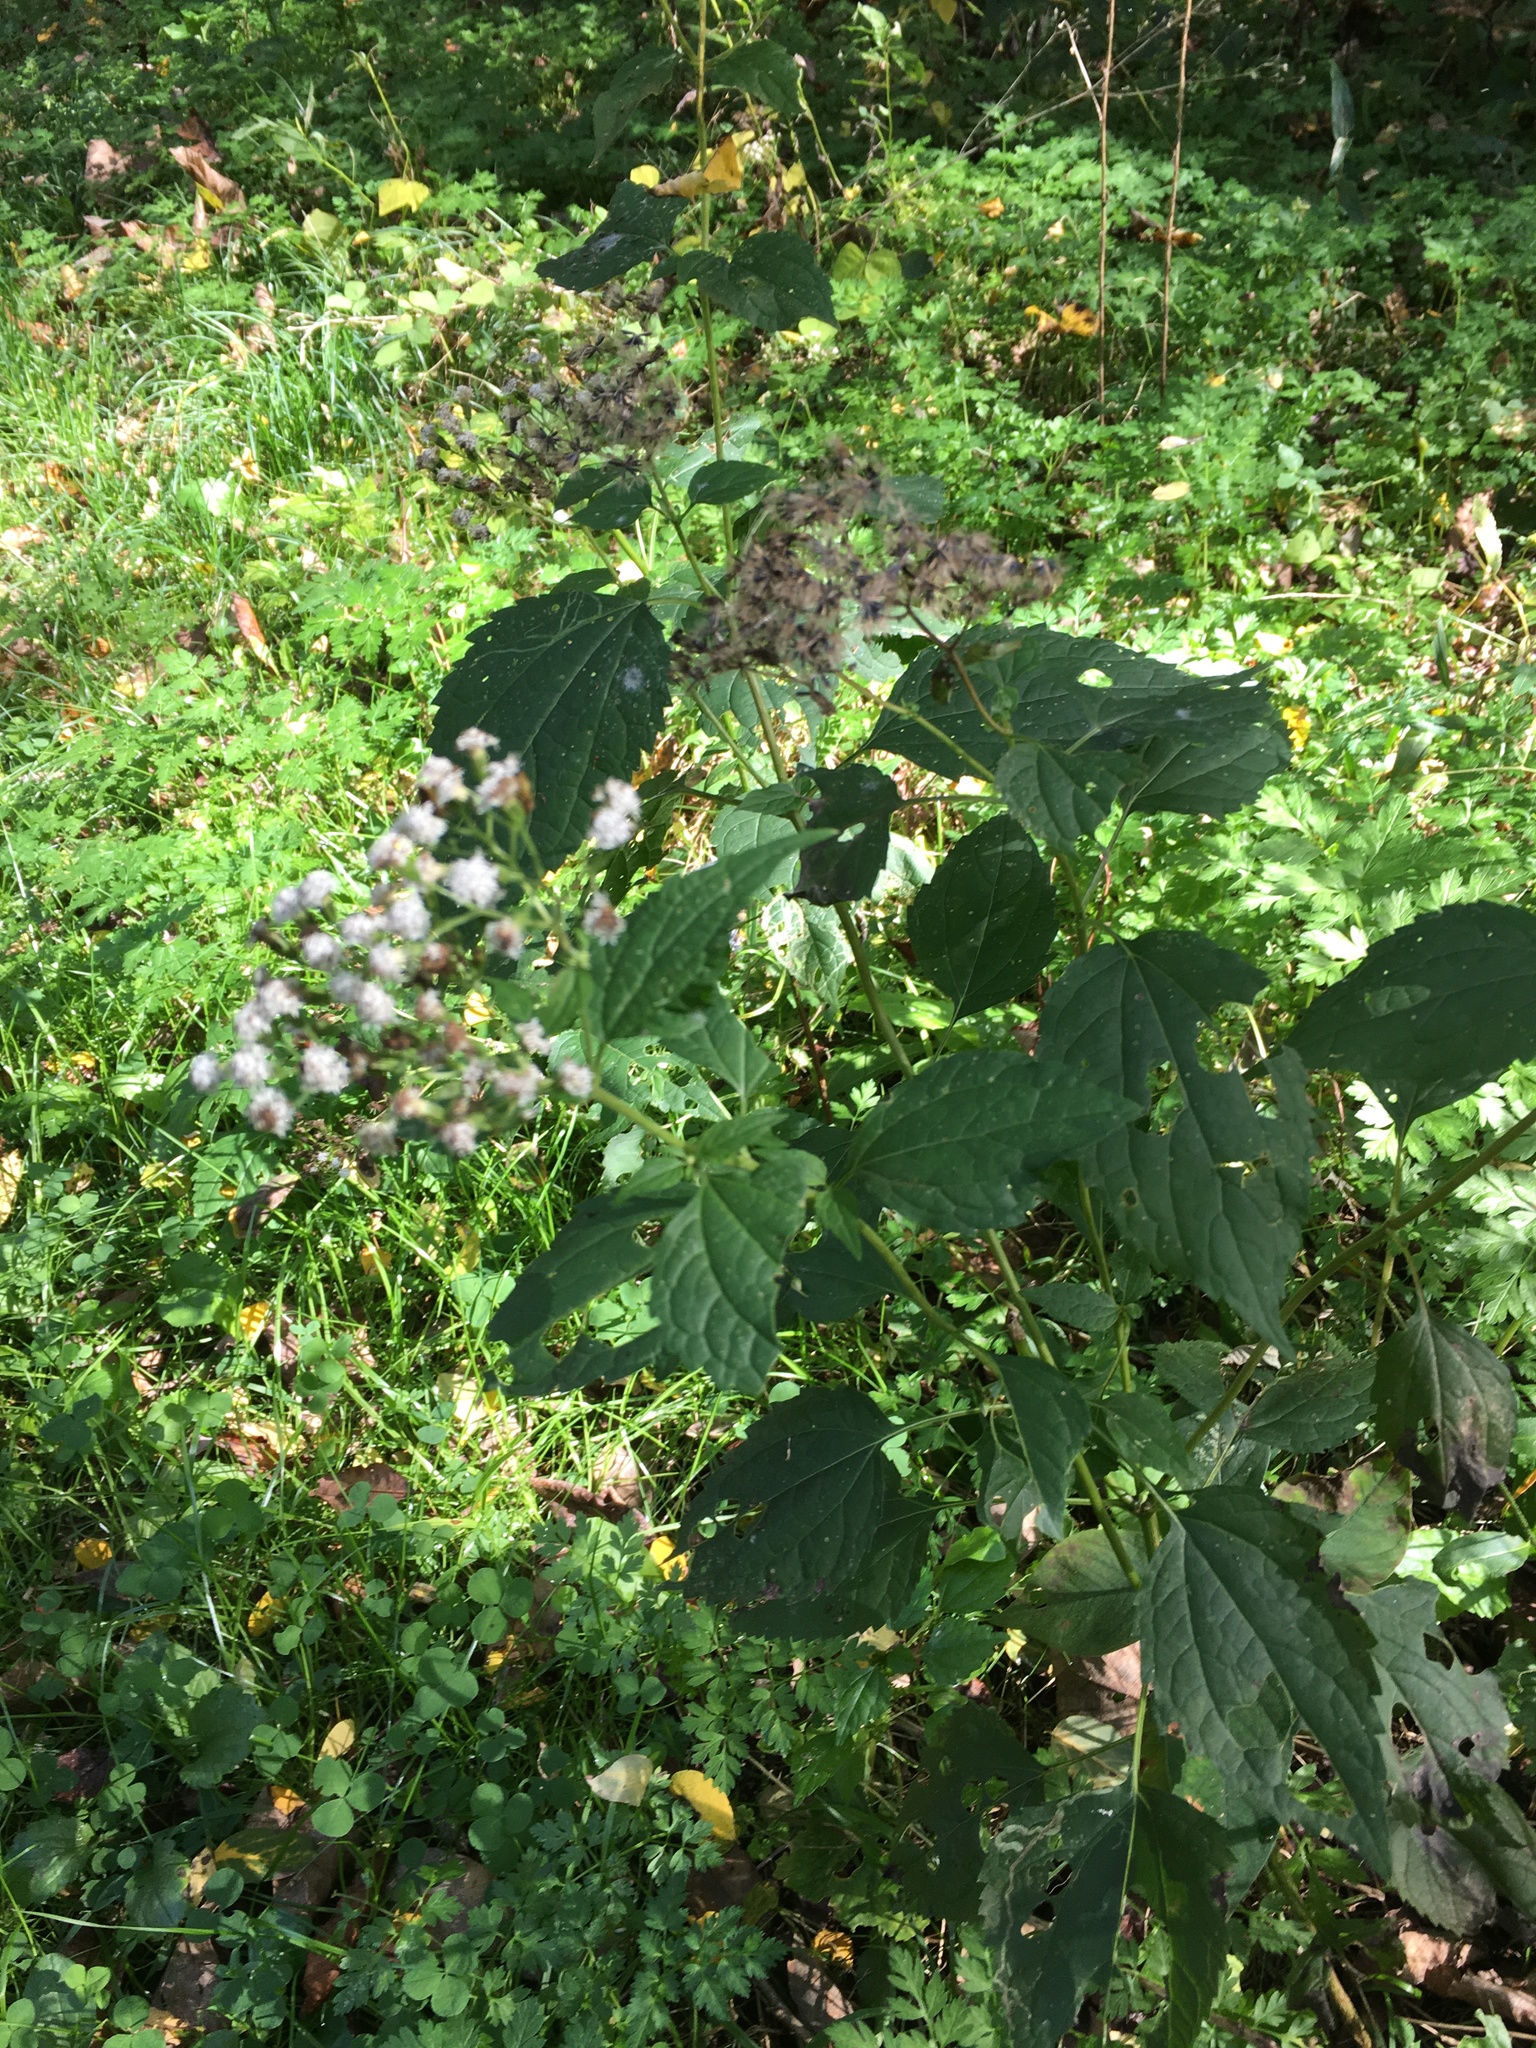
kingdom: Plantae
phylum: Tracheophyta
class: Magnoliopsida
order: Asterales
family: Asteraceae
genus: Ageratina
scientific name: Ageratina altissima
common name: White snakeroot
